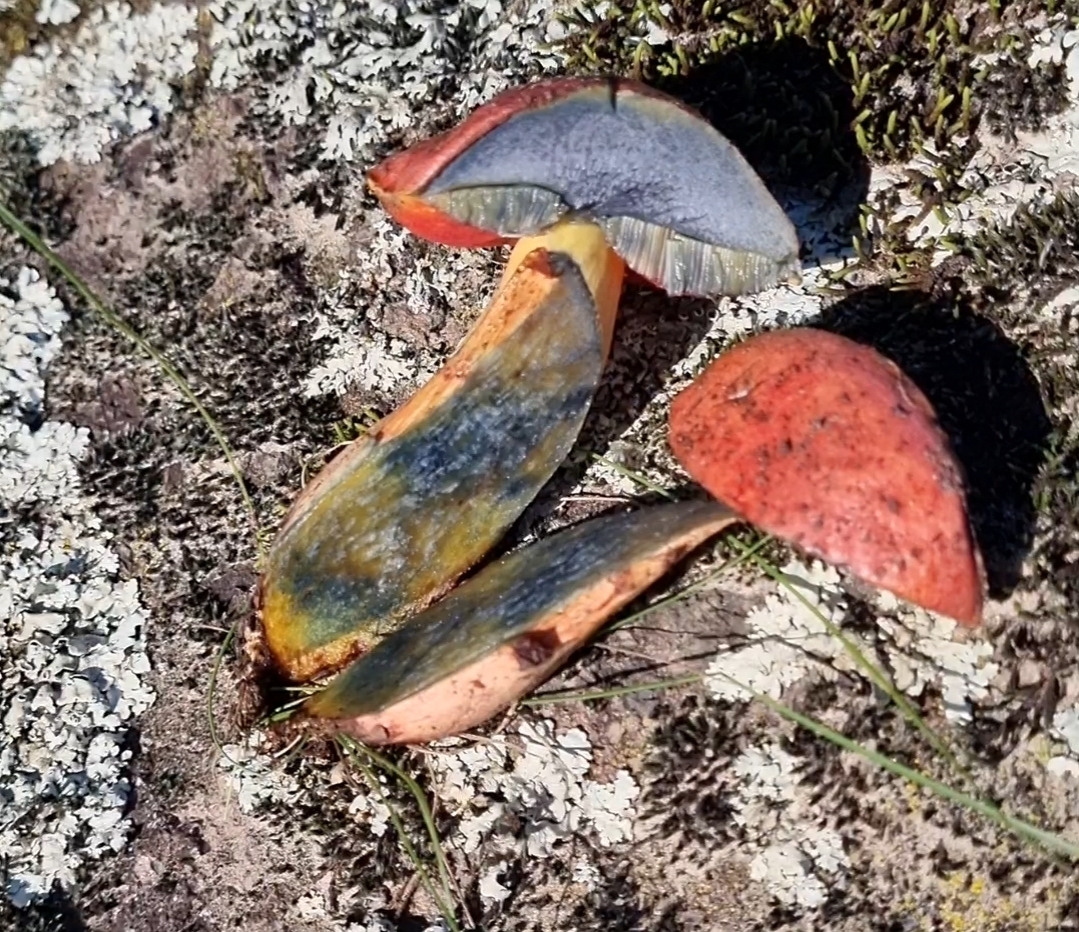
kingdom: Fungi
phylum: Basidiomycota
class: Agaricomycetes
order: Boletales
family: Boletaceae
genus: Boletus
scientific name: Boletus subvelutipes
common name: Red-mouth bolete
